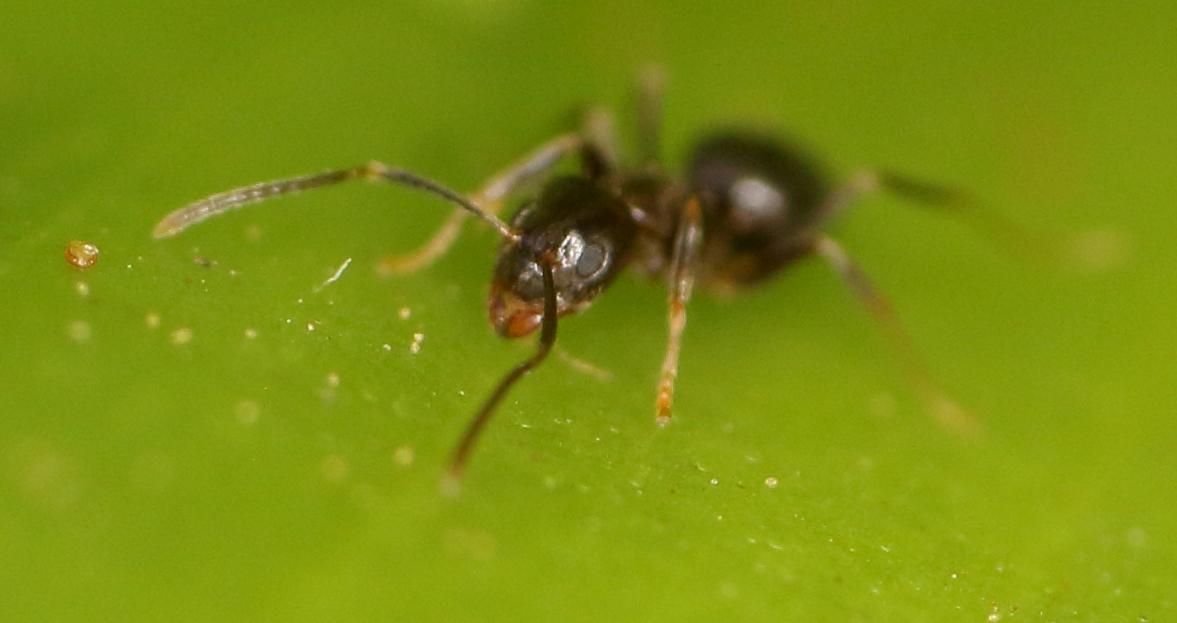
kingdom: Animalia
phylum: Arthropoda
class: Insecta
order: Hymenoptera
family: Formicidae
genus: Nylanderia
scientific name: Nylanderia natalenis
